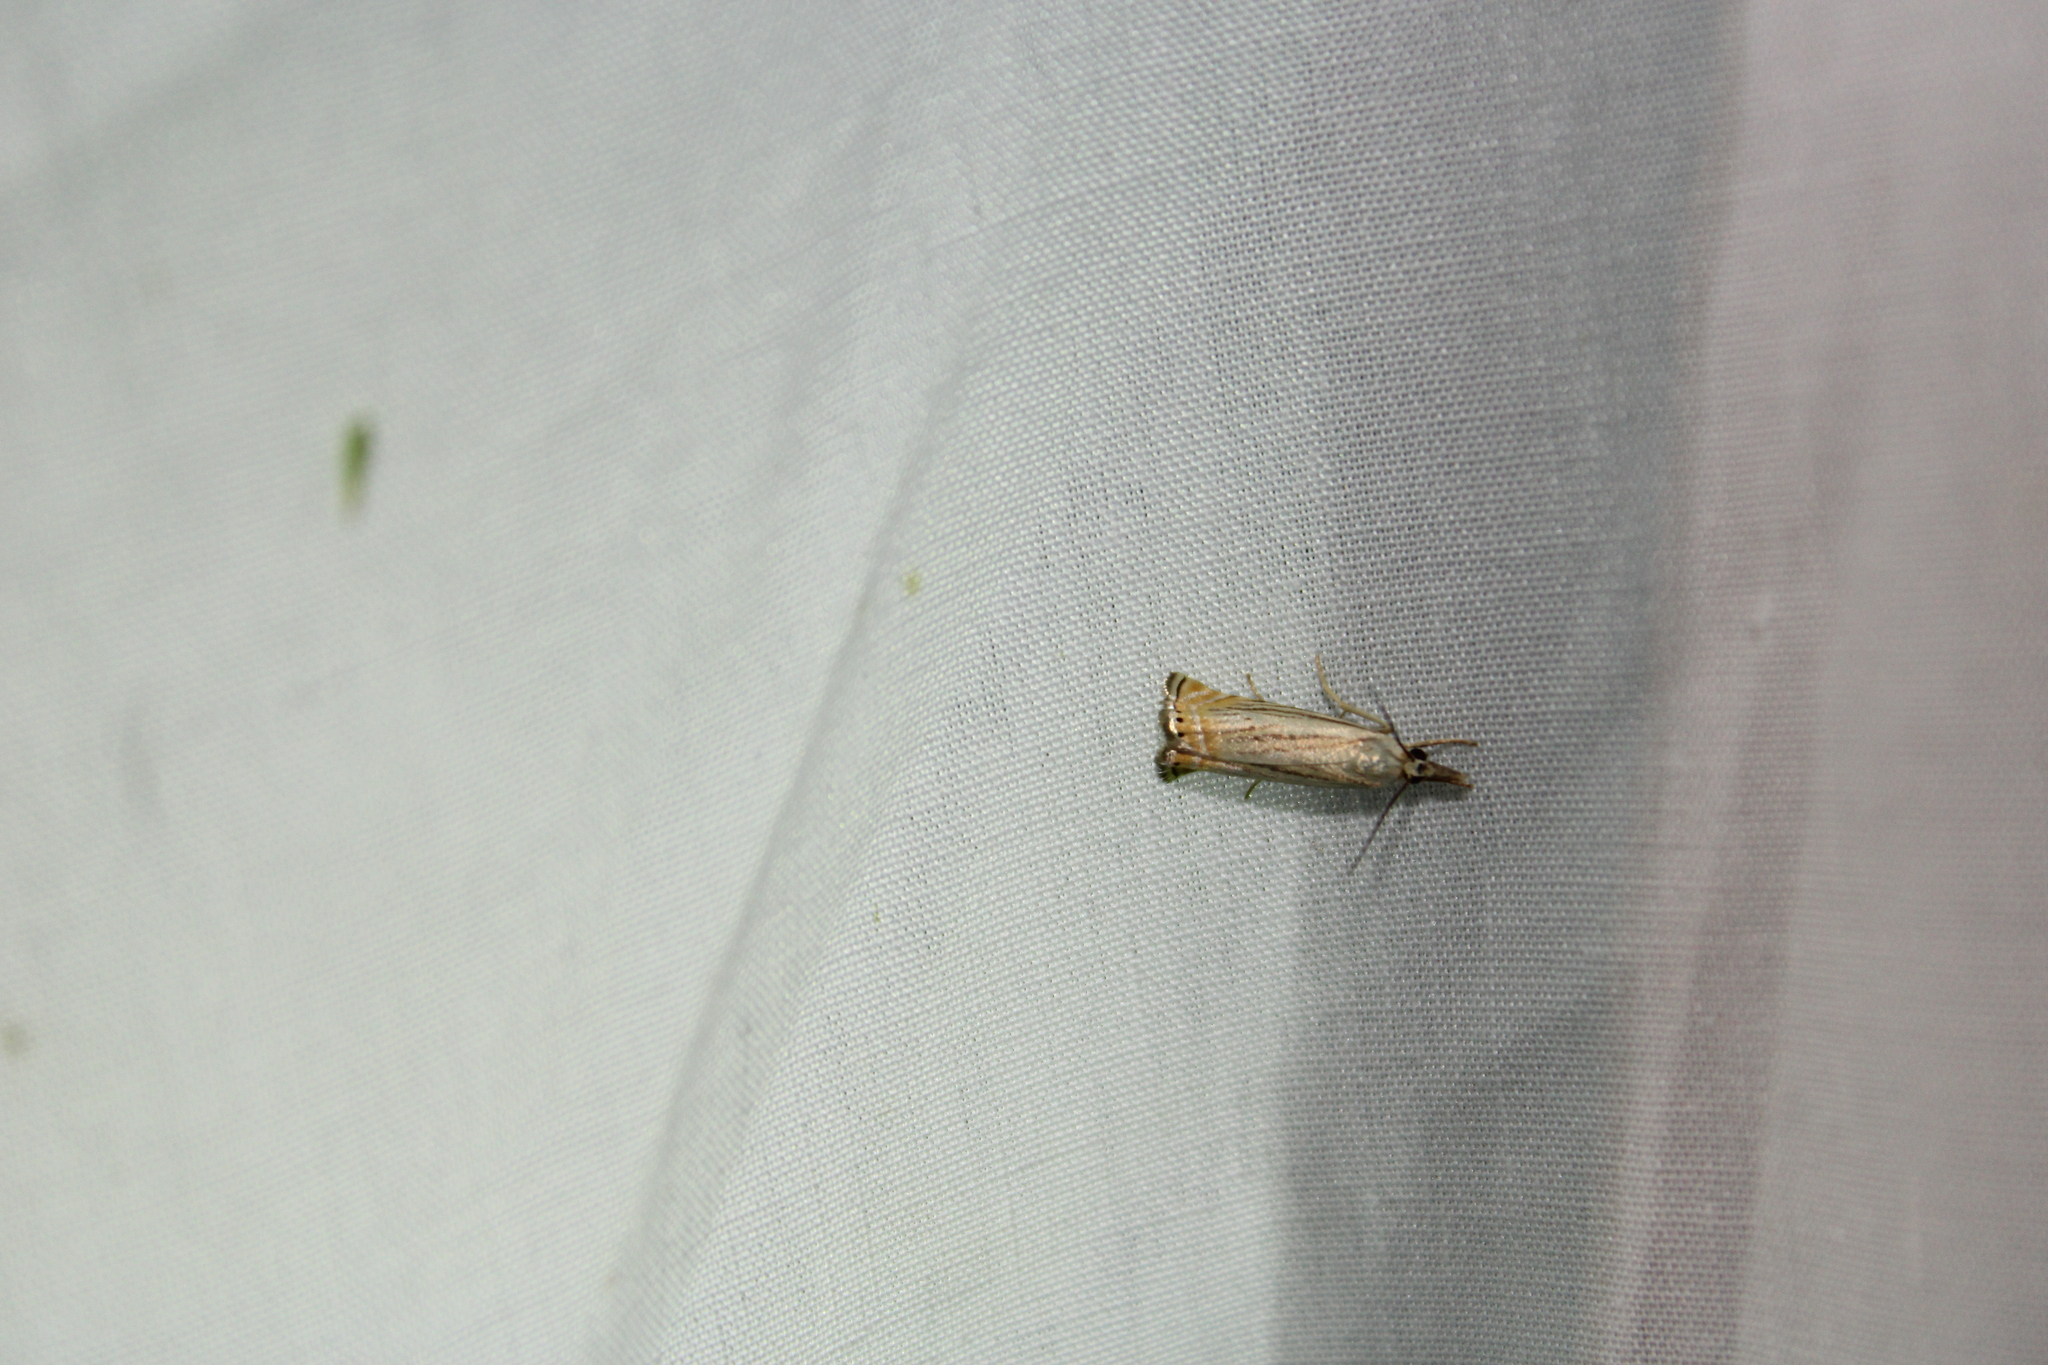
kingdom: Animalia
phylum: Arthropoda
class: Insecta
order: Lepidoptera
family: Crambidae
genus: Chrysoteuchia
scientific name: Chrysoteuchia topiarius
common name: Topiary grass-veneer
